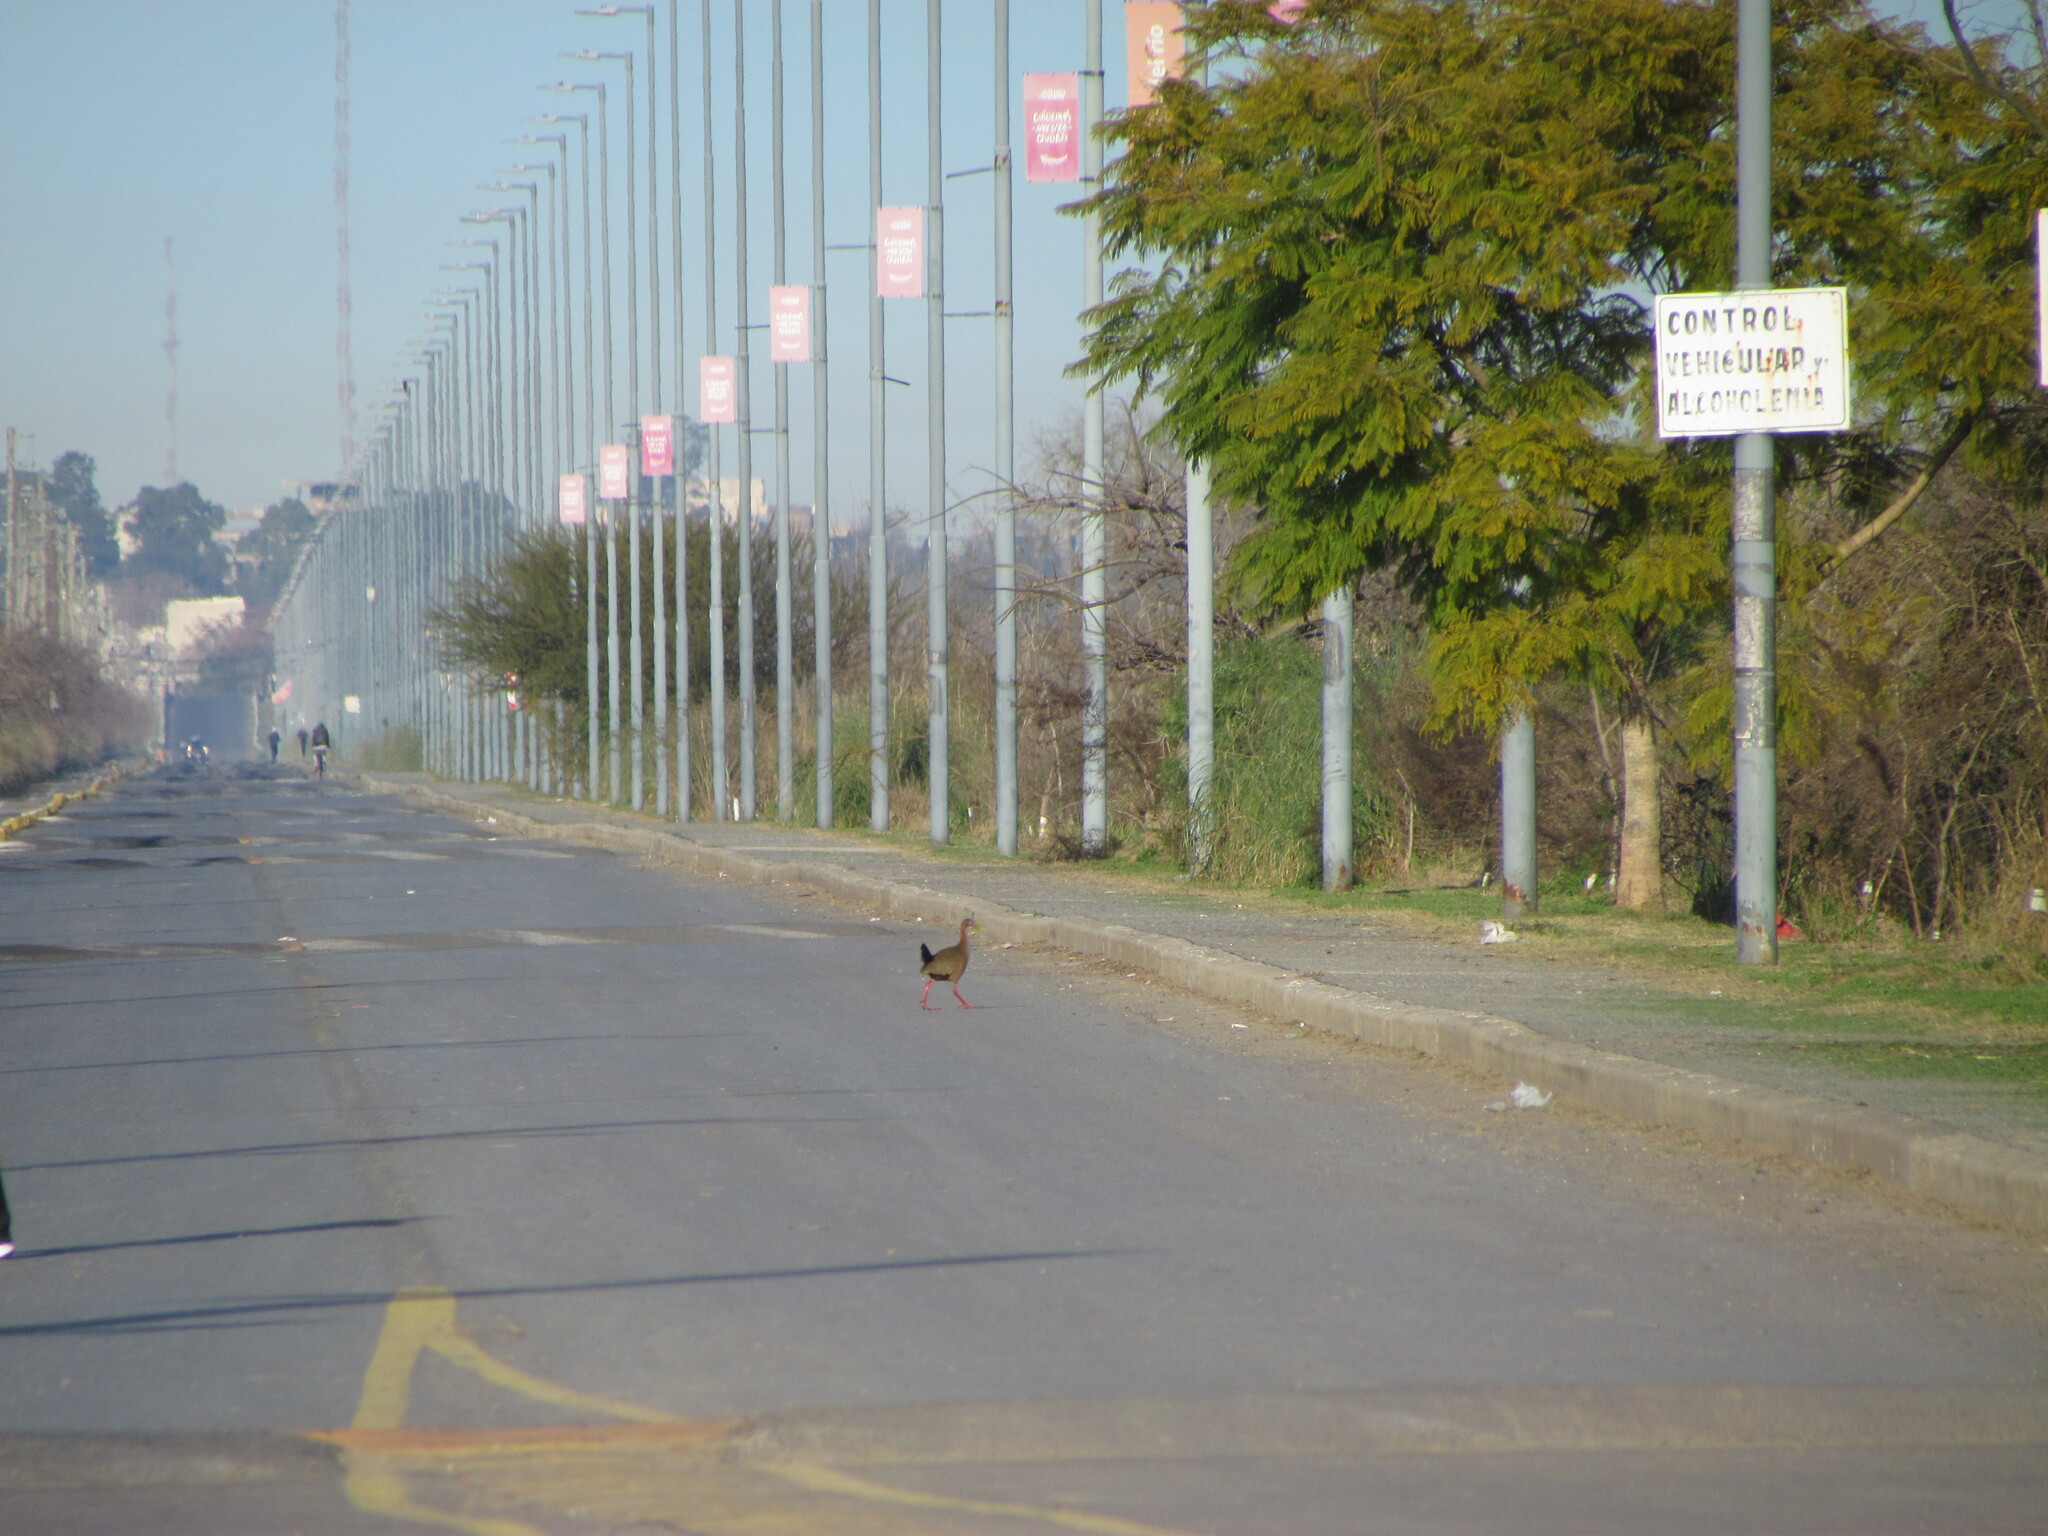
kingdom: Animalia
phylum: Chordata
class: Aves
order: Gruiformes
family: Rallidae
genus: Aramides
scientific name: Aramides ypecaha
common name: Giant wood rail
